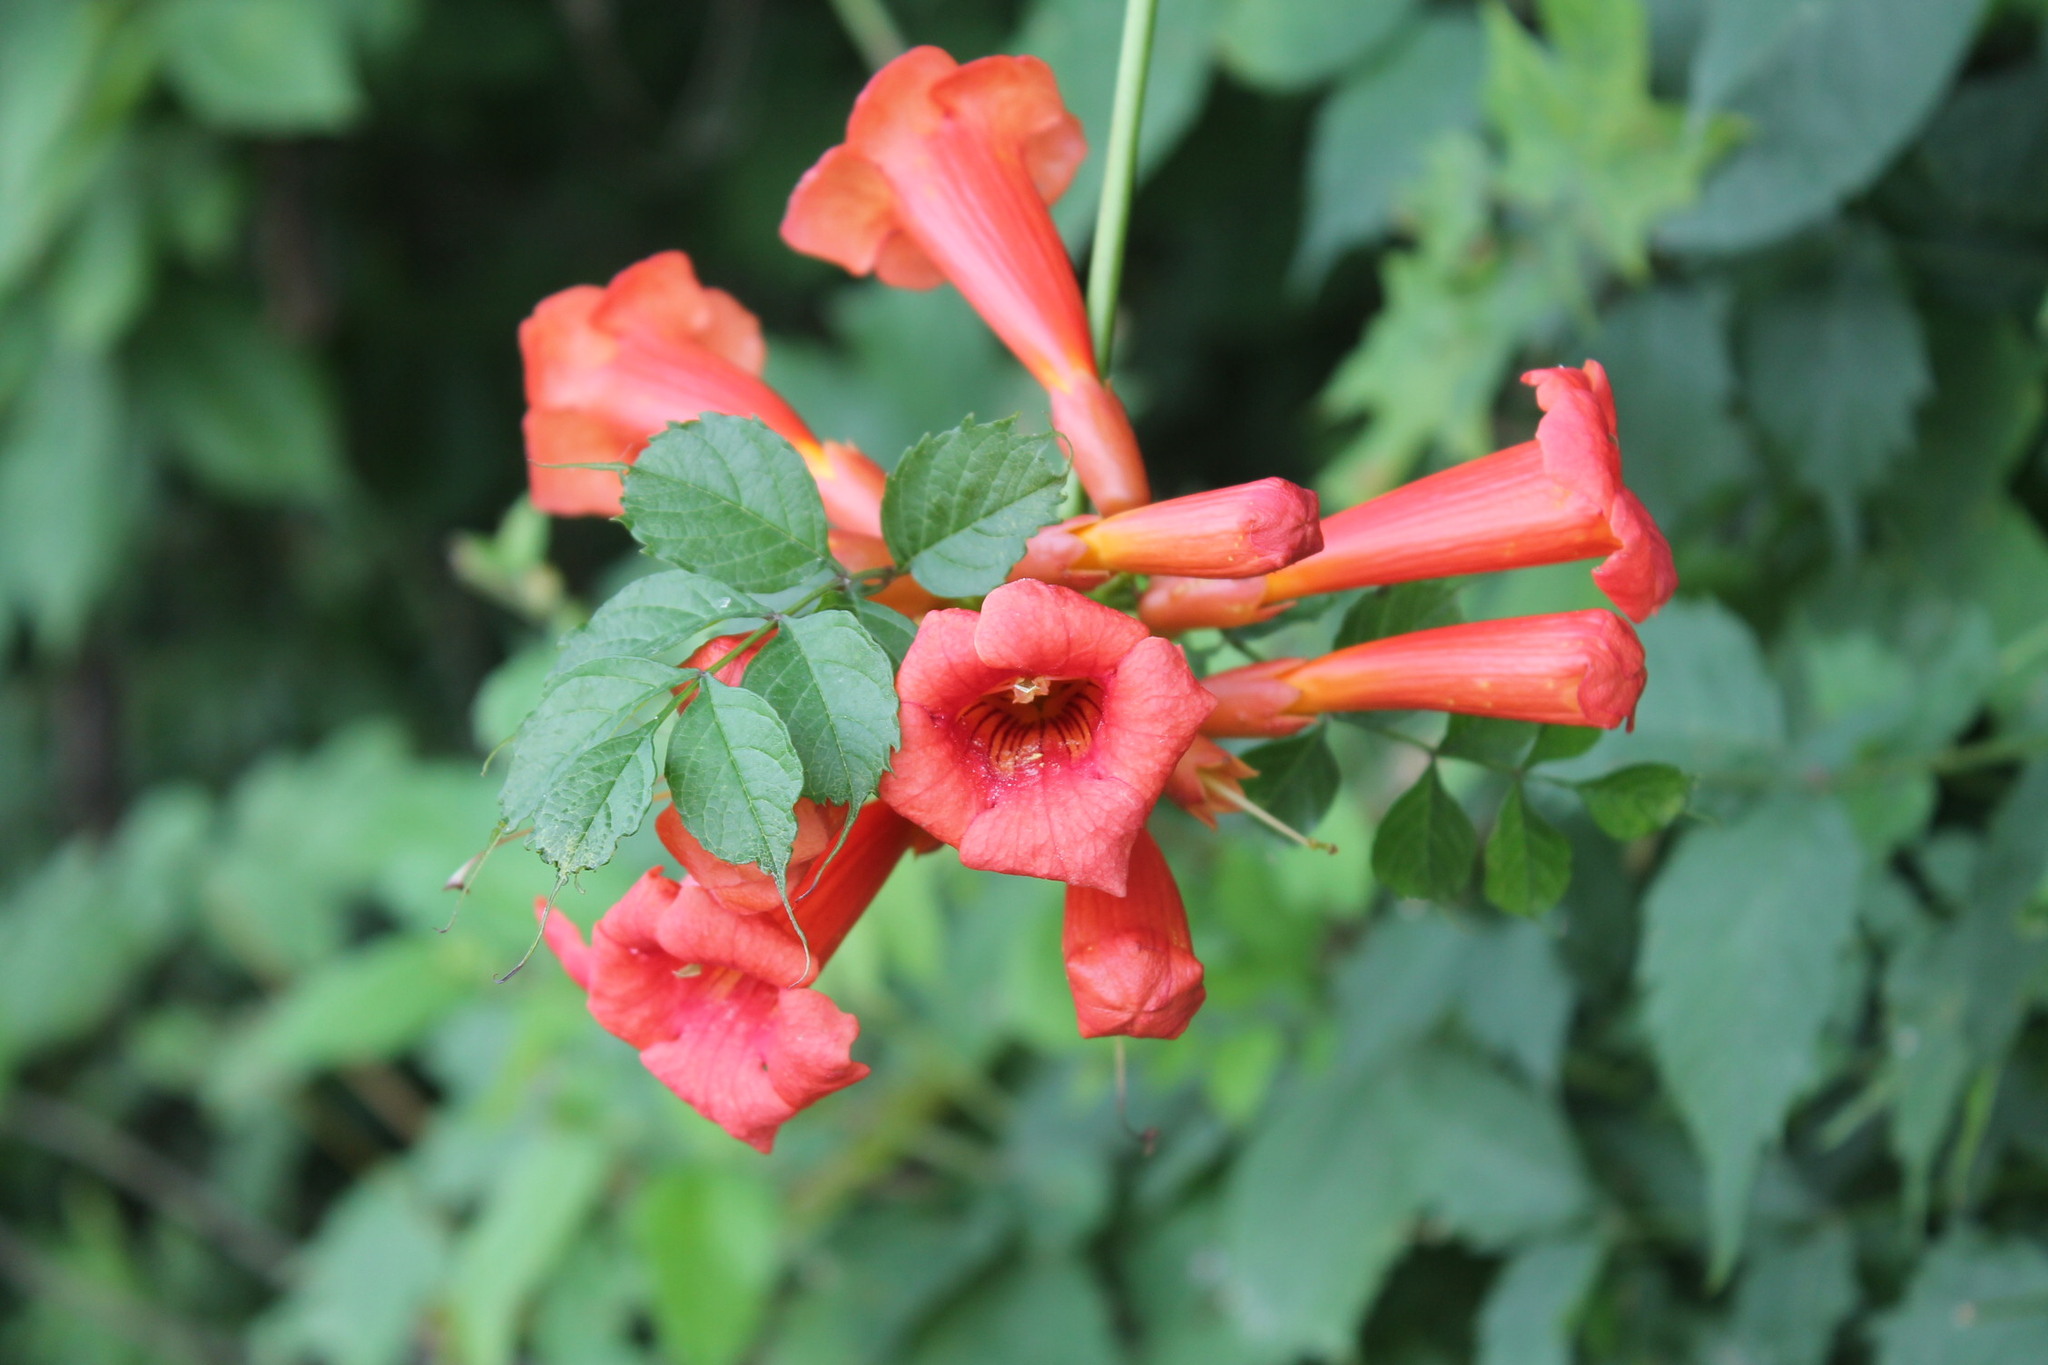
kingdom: Plantae
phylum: Tracheophyta
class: Magnoliopsida
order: Lamiales
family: Bignoniaceae
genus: Campsis
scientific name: Campsis radicans
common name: Trumpet-creeper
